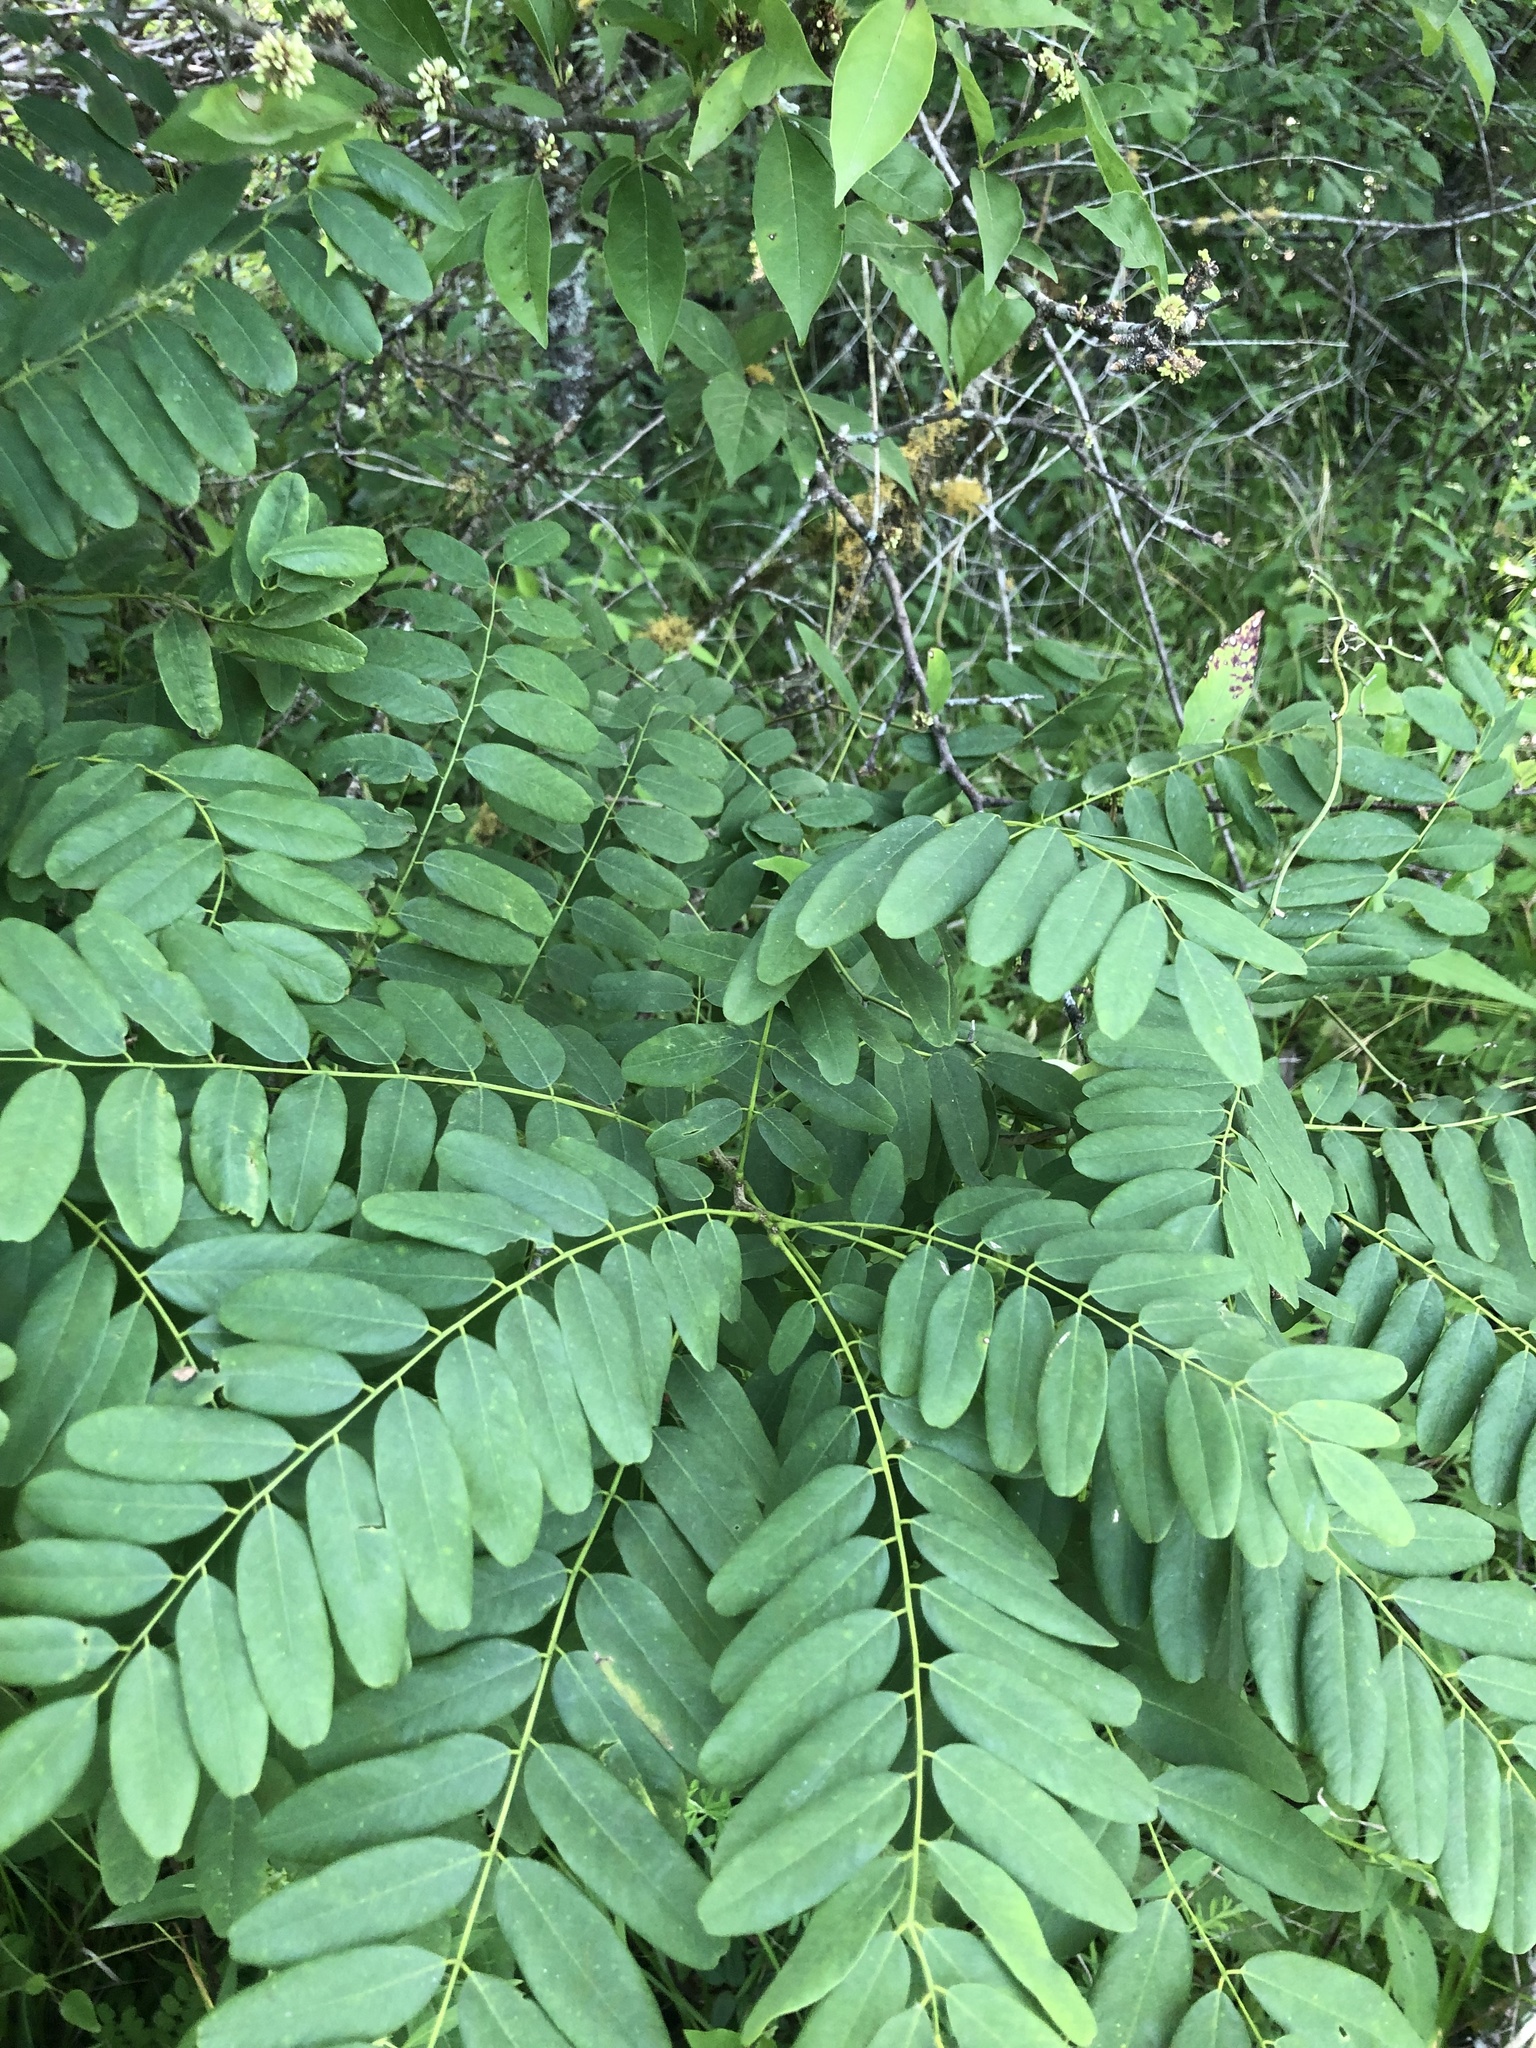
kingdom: Plantae
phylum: Tracheophyta
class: Magnoliopsida
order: Fabales
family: Fabaceae
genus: Amorpha
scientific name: Amorpha fruticosa
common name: False indigo
